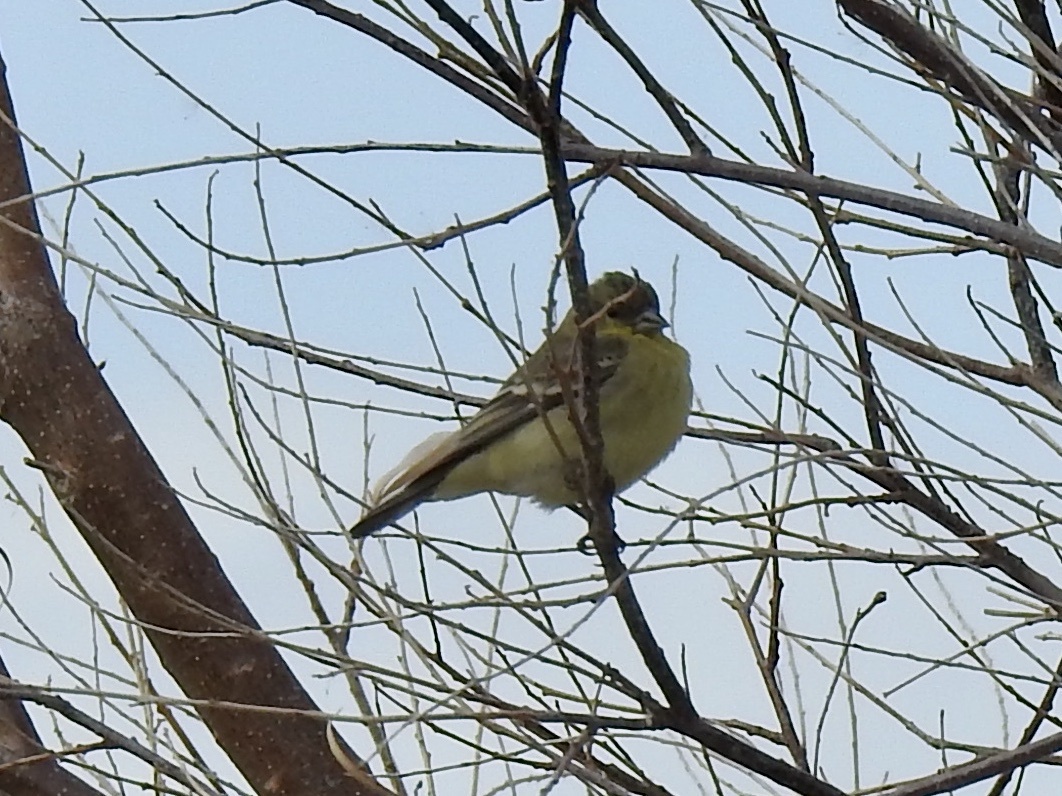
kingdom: Animalia
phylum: Chordata
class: Aves
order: Passeriformes
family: Fringillidae
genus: Spinus
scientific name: Spinus psaltria
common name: Lesser goldfinch
